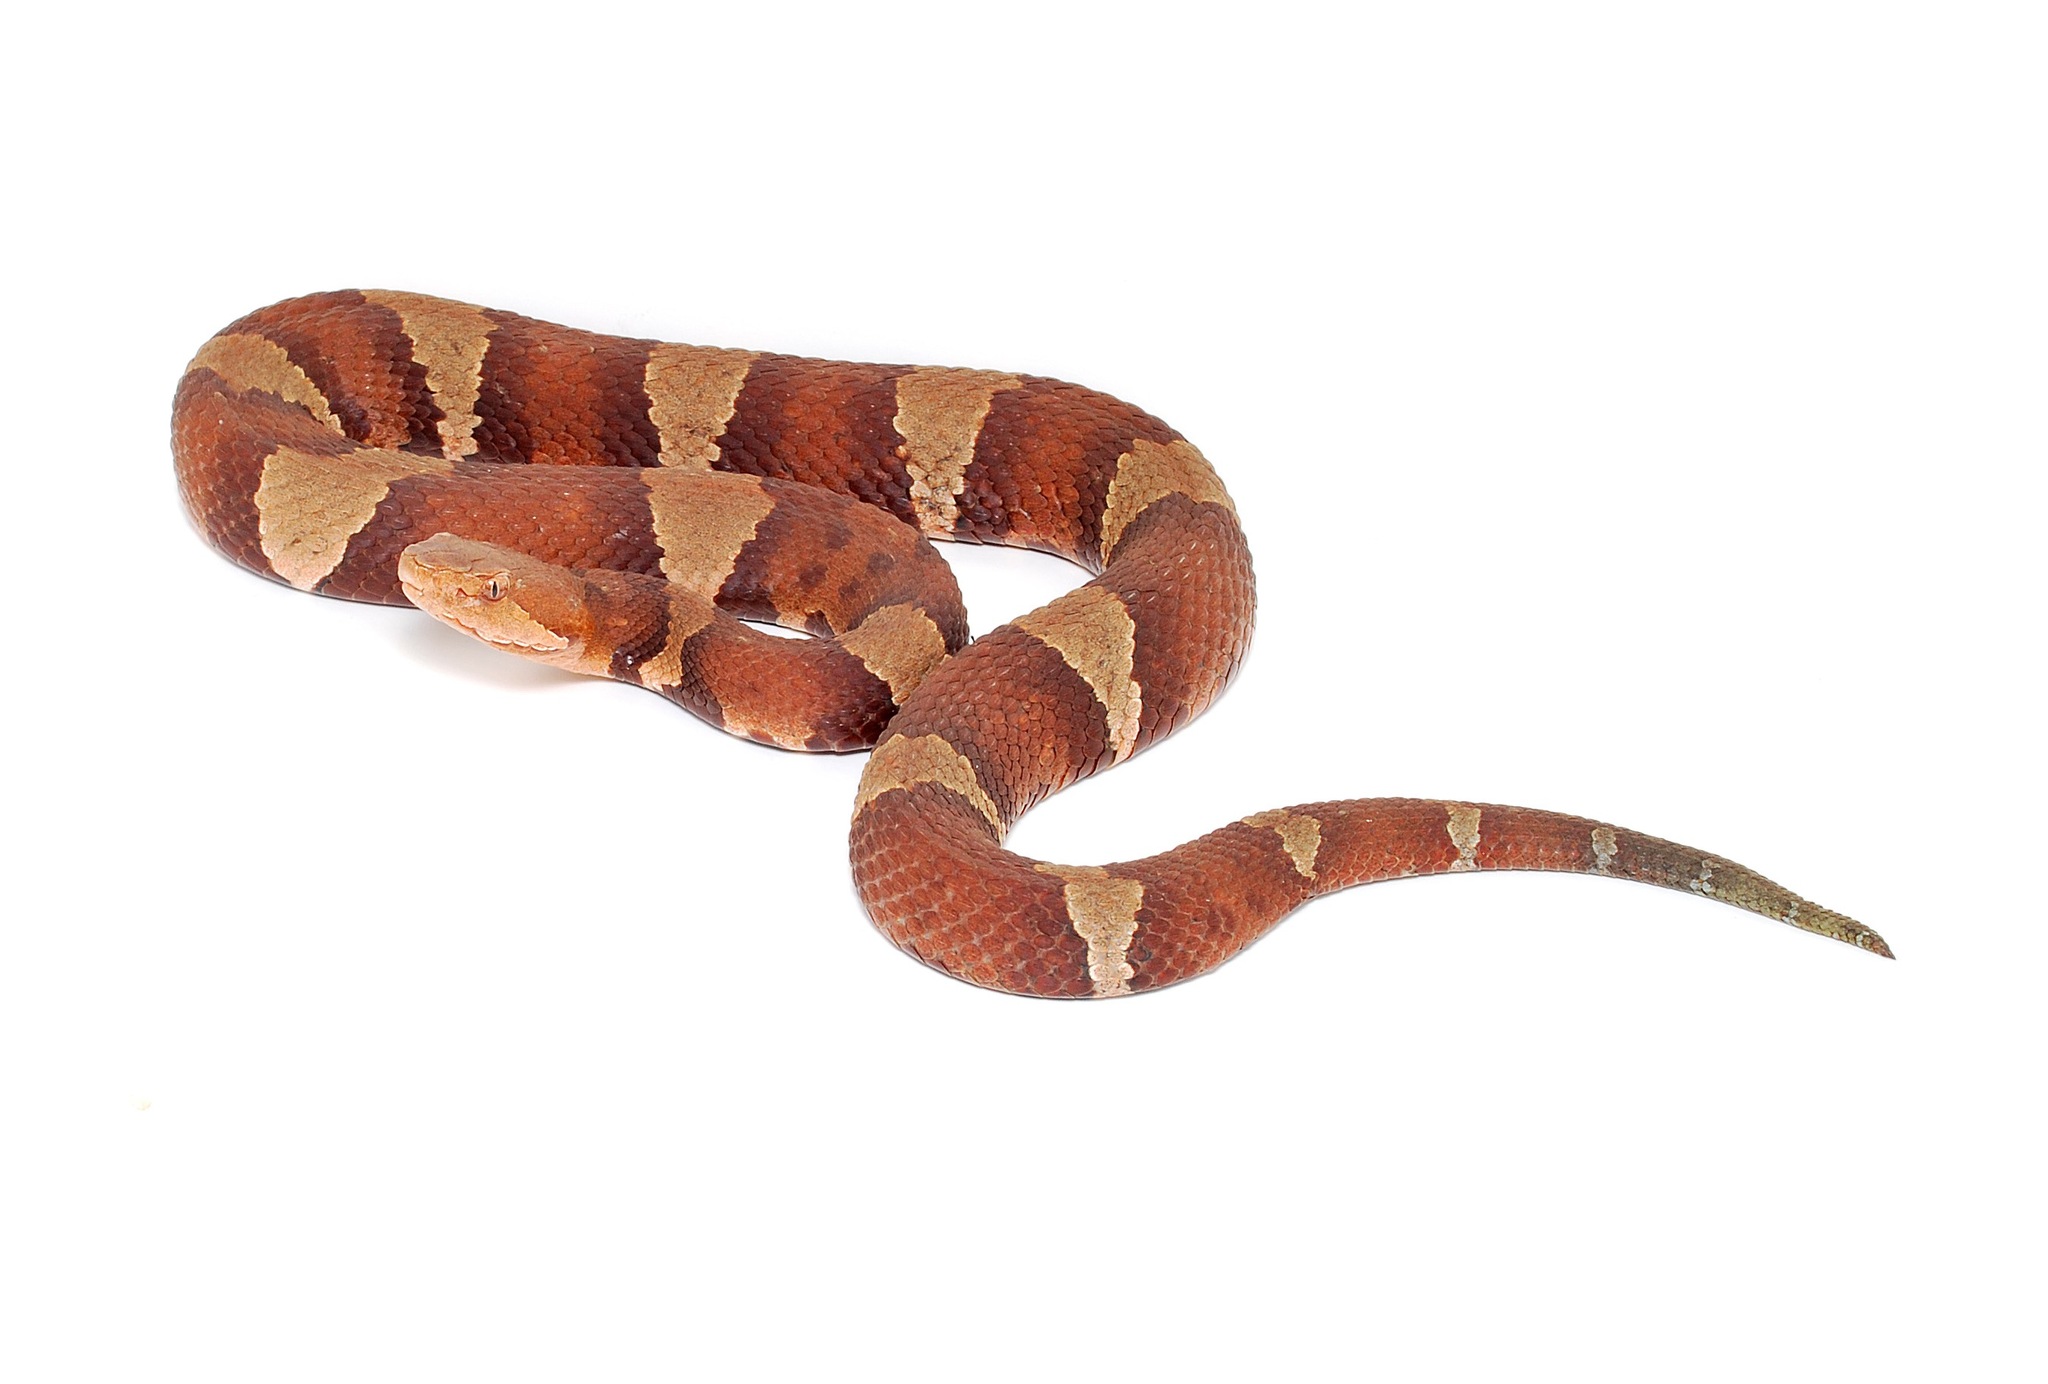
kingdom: Animalia
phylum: Chordata
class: Squamata
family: Viperidae
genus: Agkistrodon
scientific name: Agkistrodon laticinctus
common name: Broad-banded copperhead
